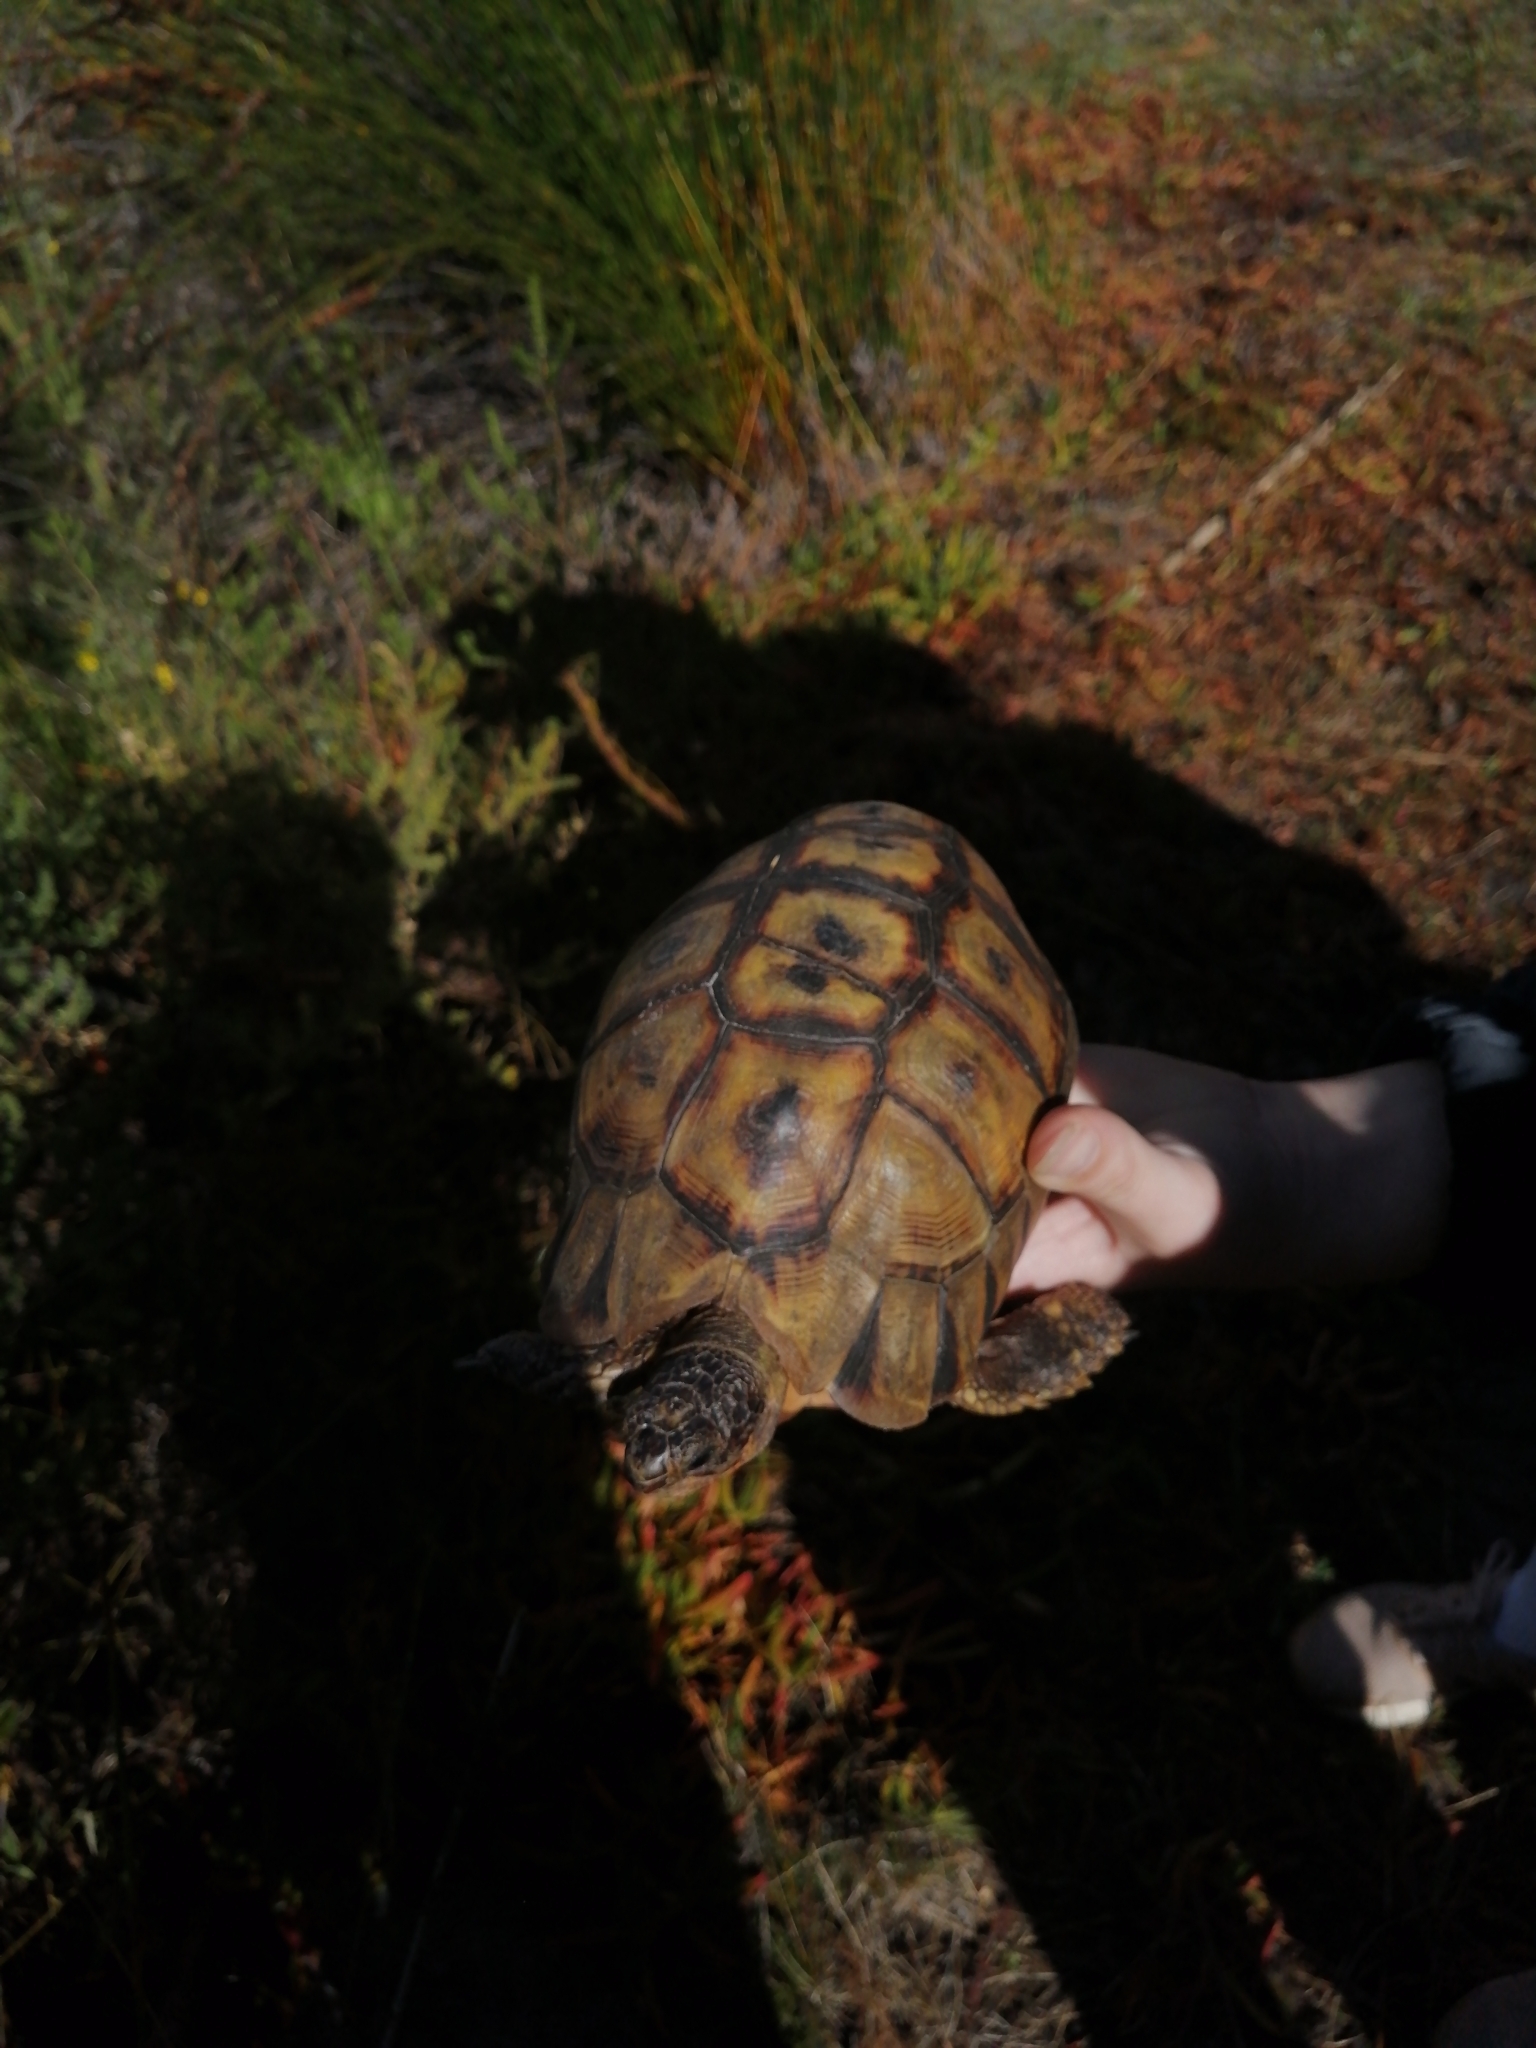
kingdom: Animalia
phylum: Chordata
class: Testudines
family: Testudinidae
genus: Chersina
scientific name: Chersina angulata
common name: South african bowsprit tortoise
